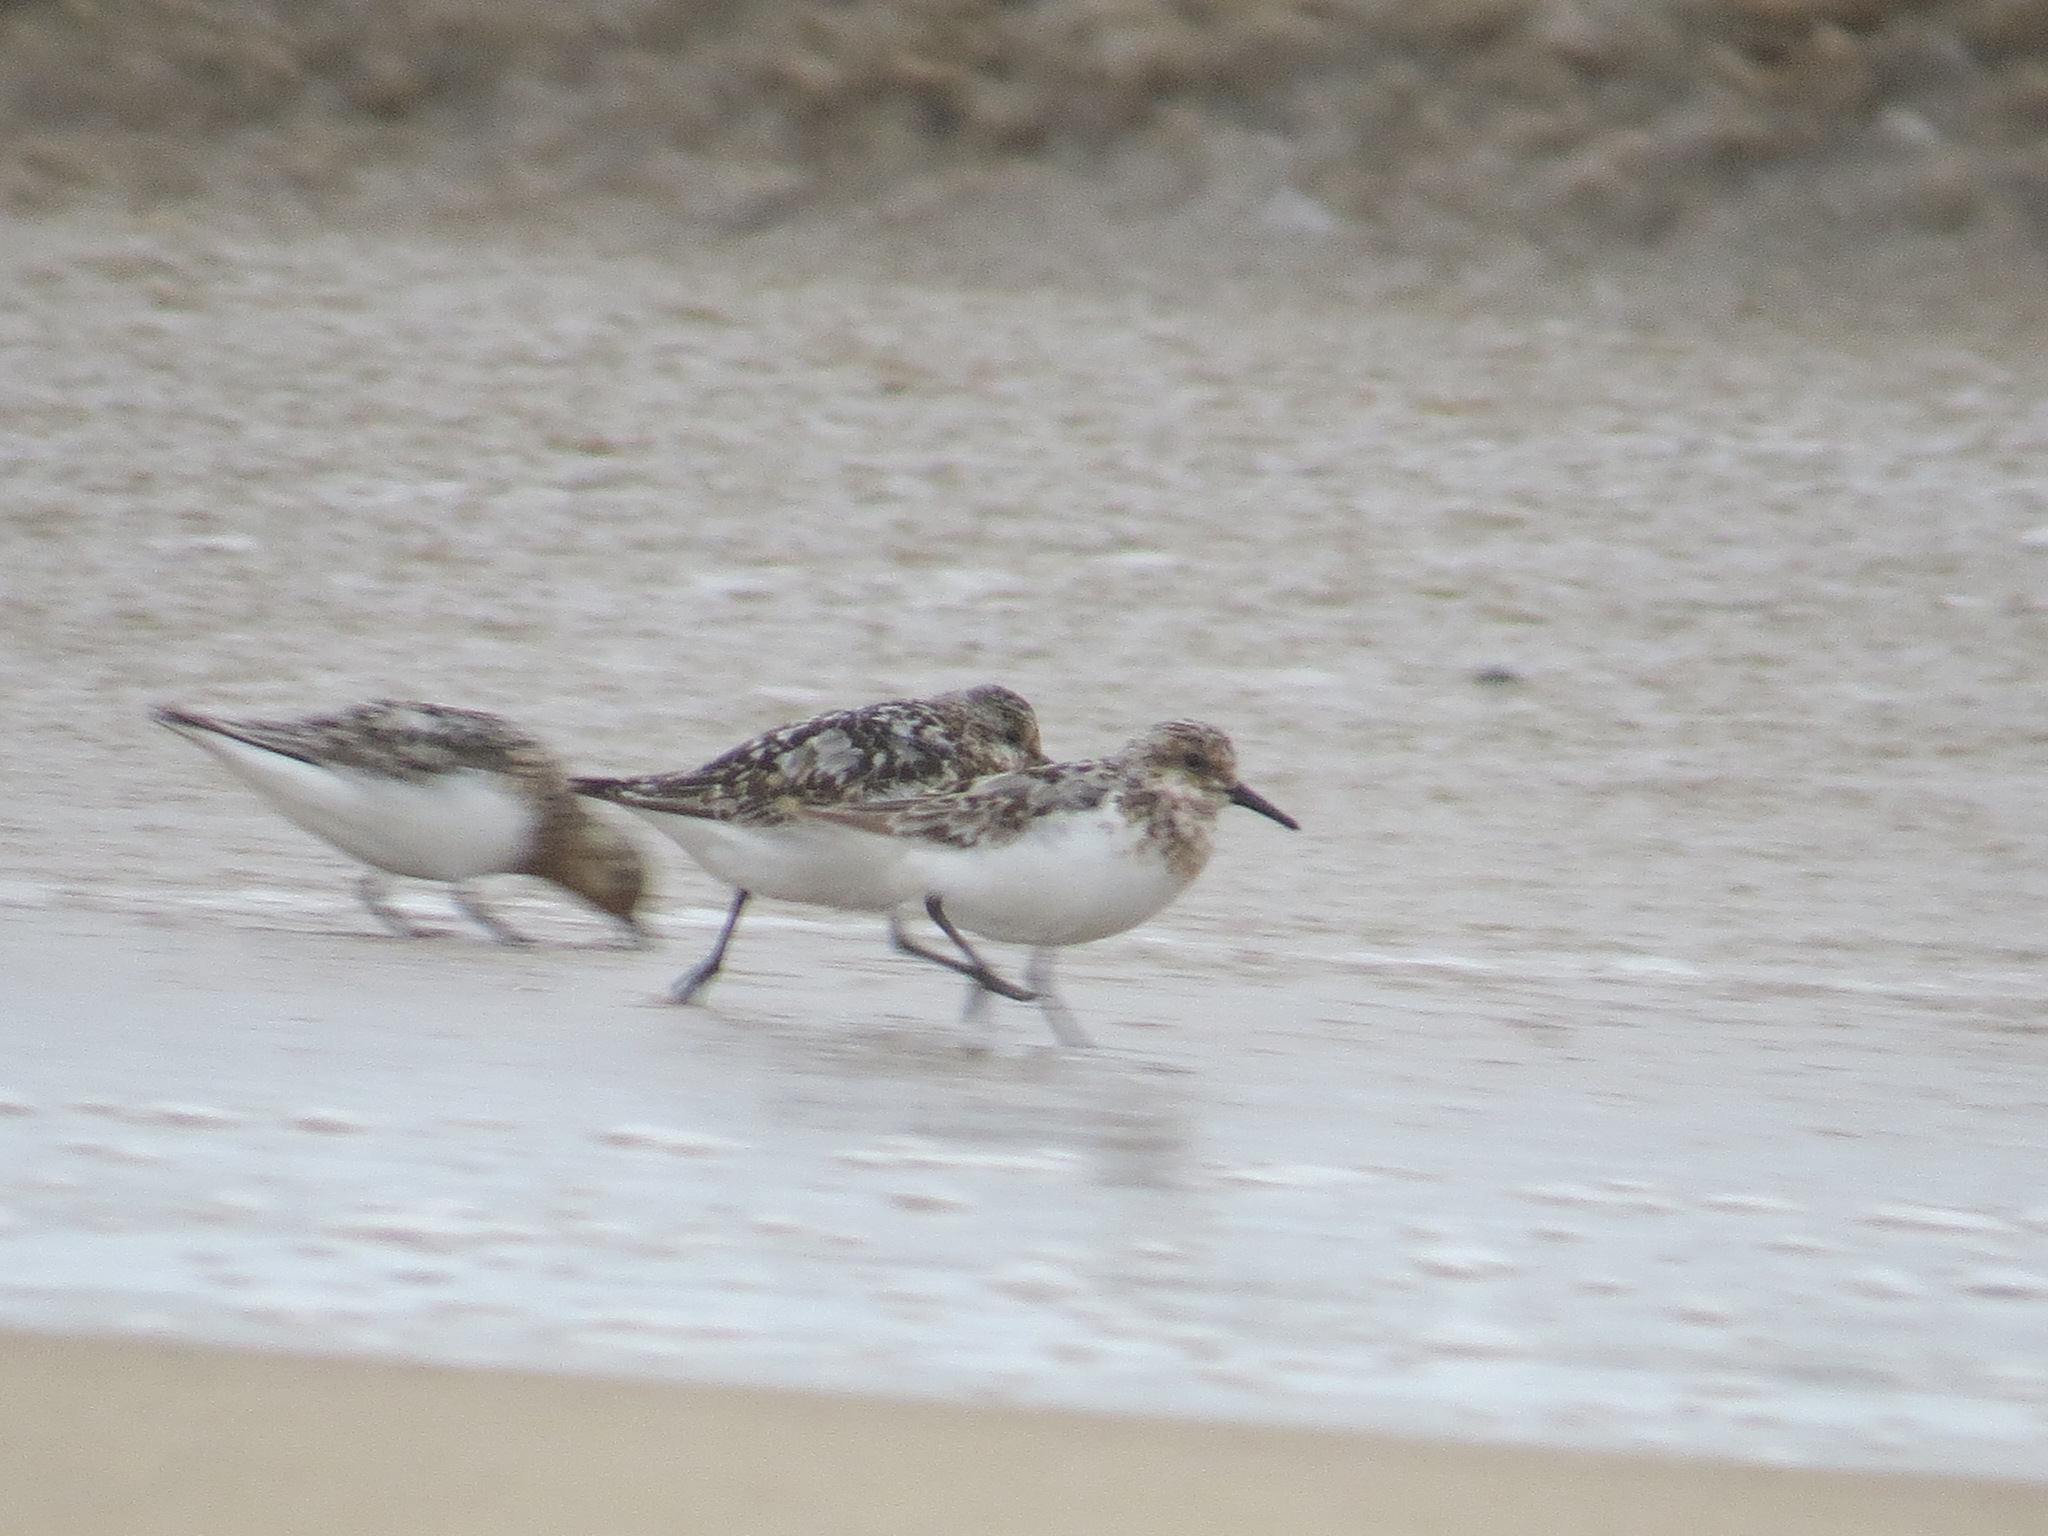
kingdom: Animalia
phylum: Chordata
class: Aves
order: Charadriiformes
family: Scolopacidae
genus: Calidris
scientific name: Calidris alba
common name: Sanderling
